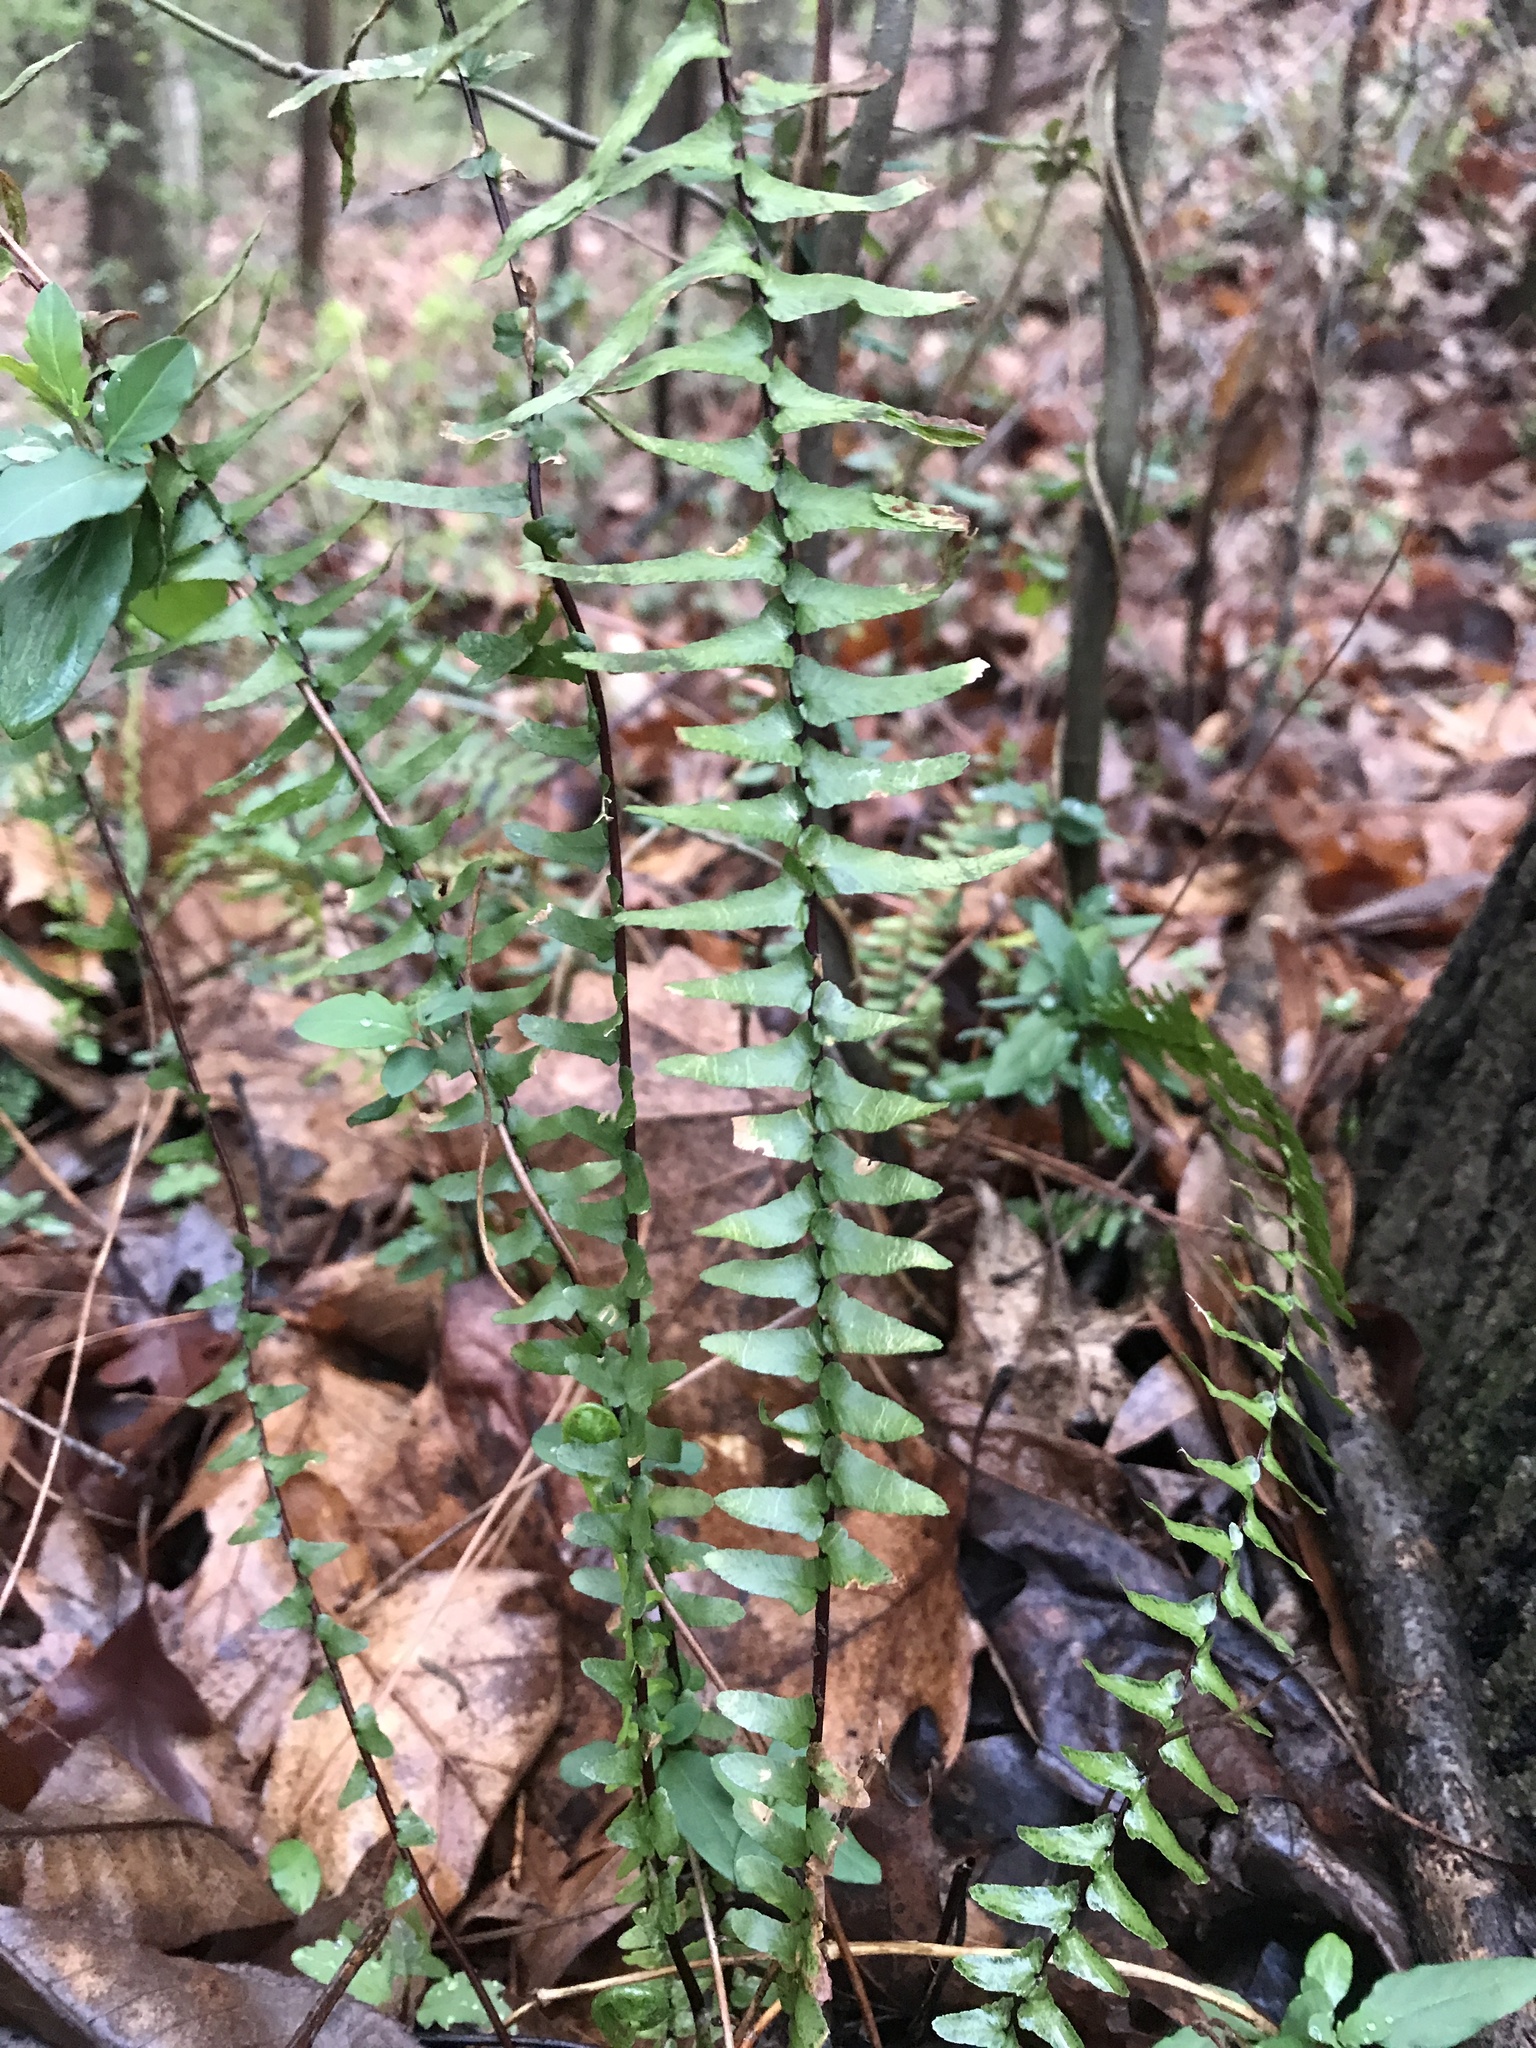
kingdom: Plantae
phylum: Tracheophyta
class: Polypodiopsida
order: Polypodiales
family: Aspleniaceae
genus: Asplenium
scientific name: Asplenium platyneuron
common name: Ebony spleenwort
